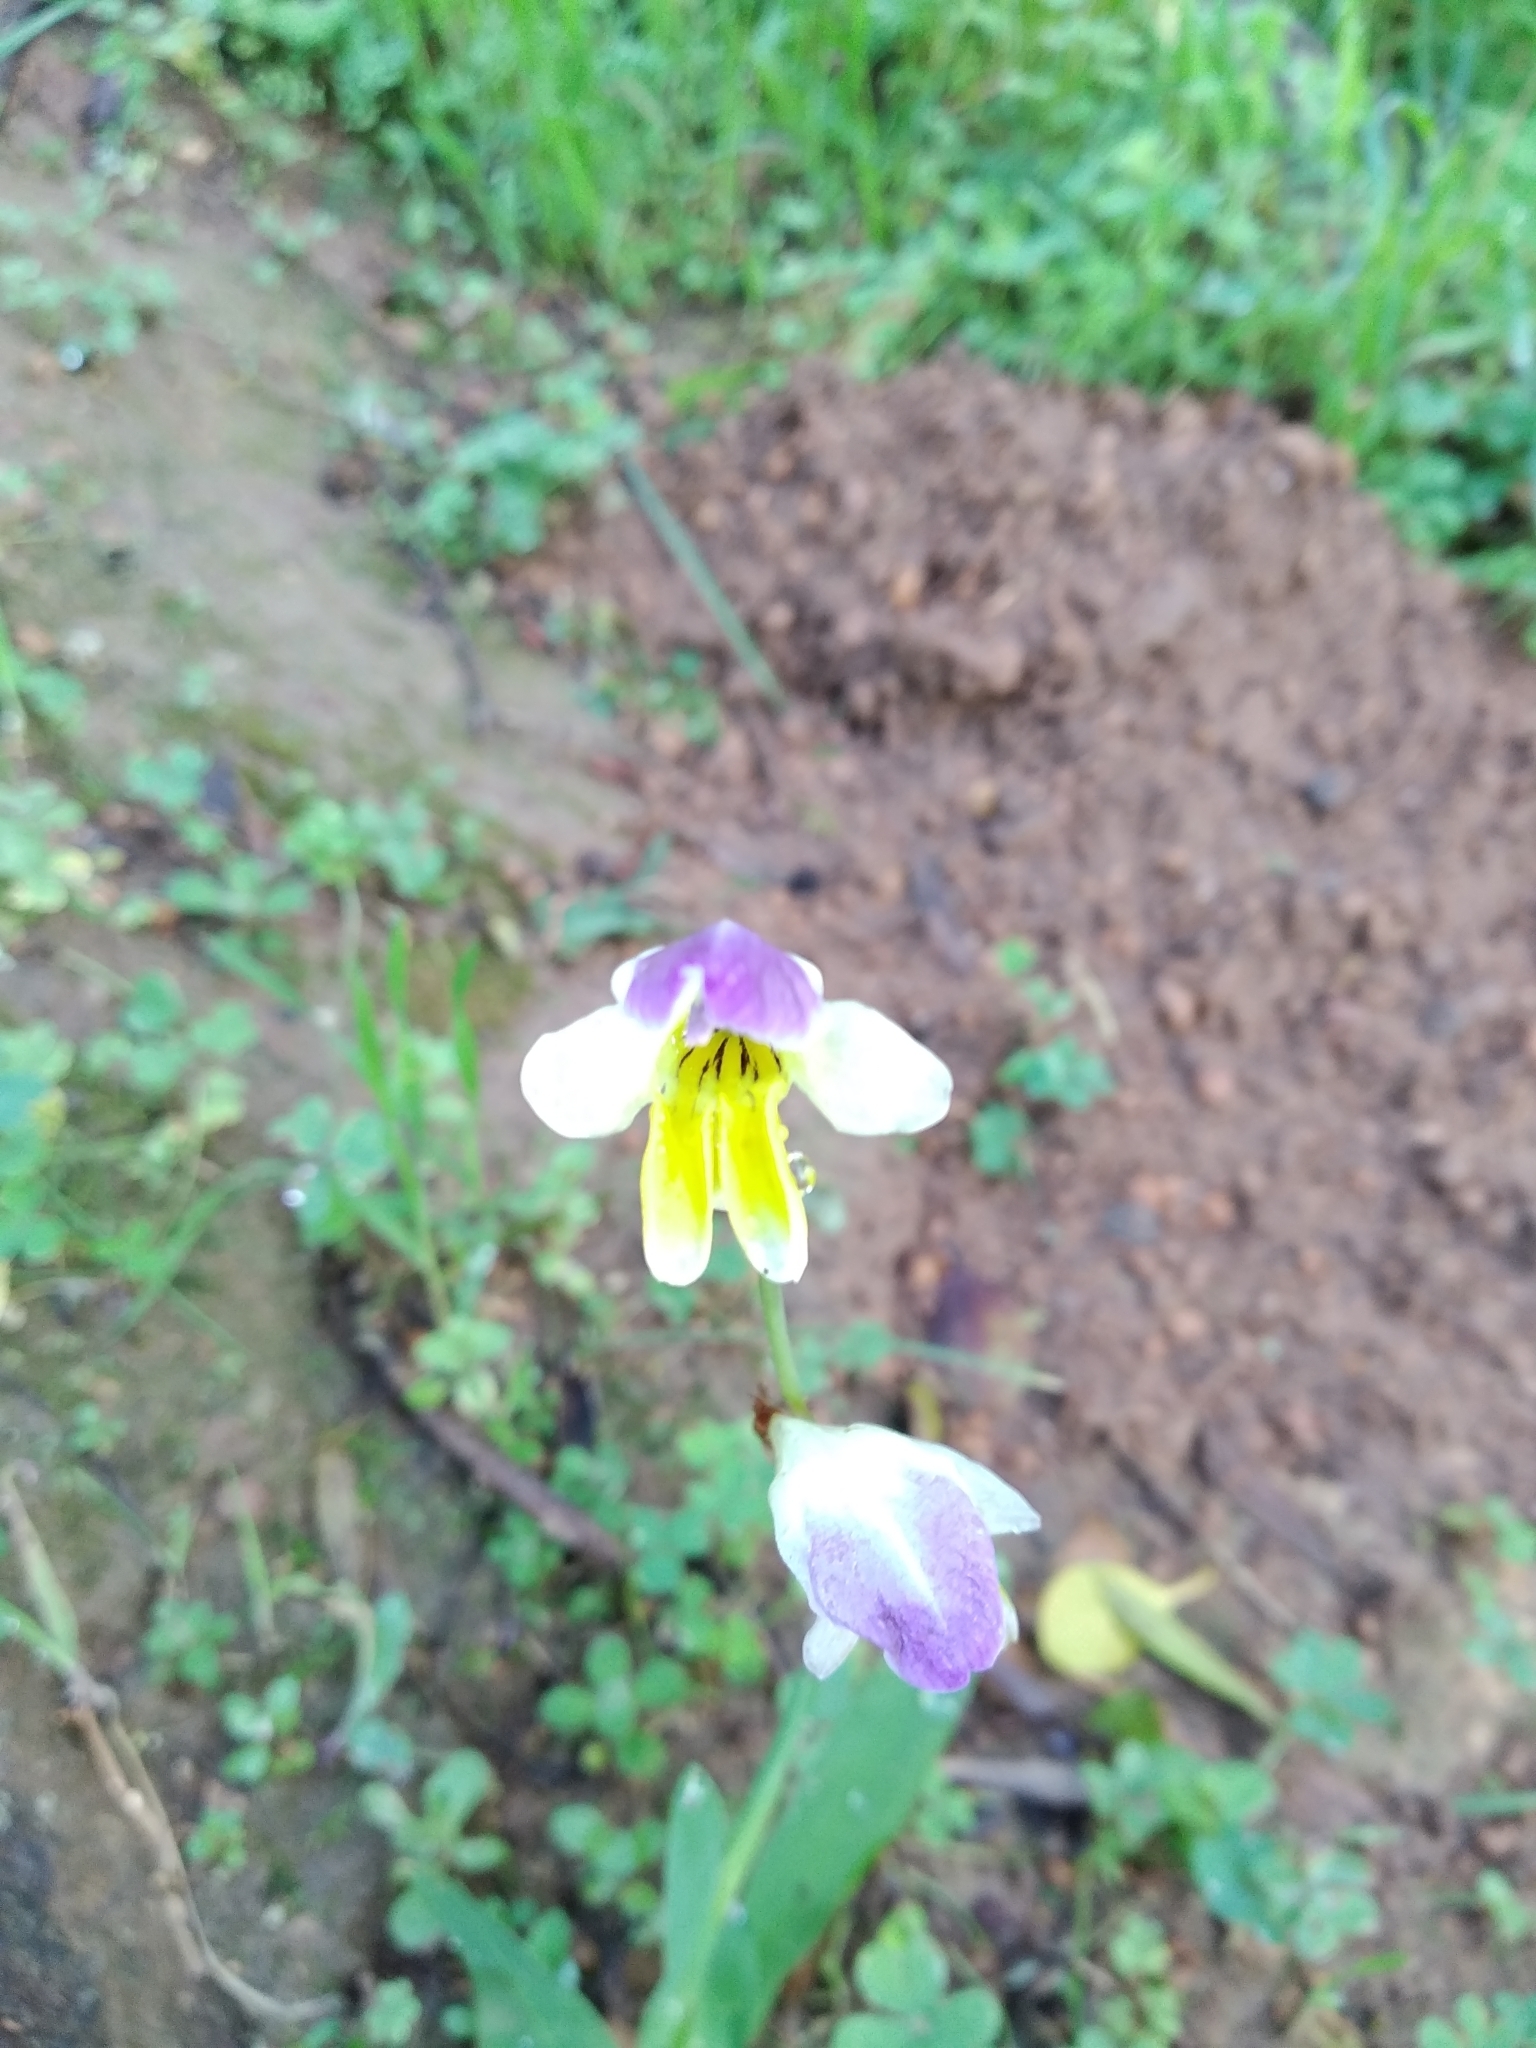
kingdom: Plantae
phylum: Tracheophyta
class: Liliopsida
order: Asparagales
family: Iridaceae
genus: Sparaxis
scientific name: Sparaxis villosa
